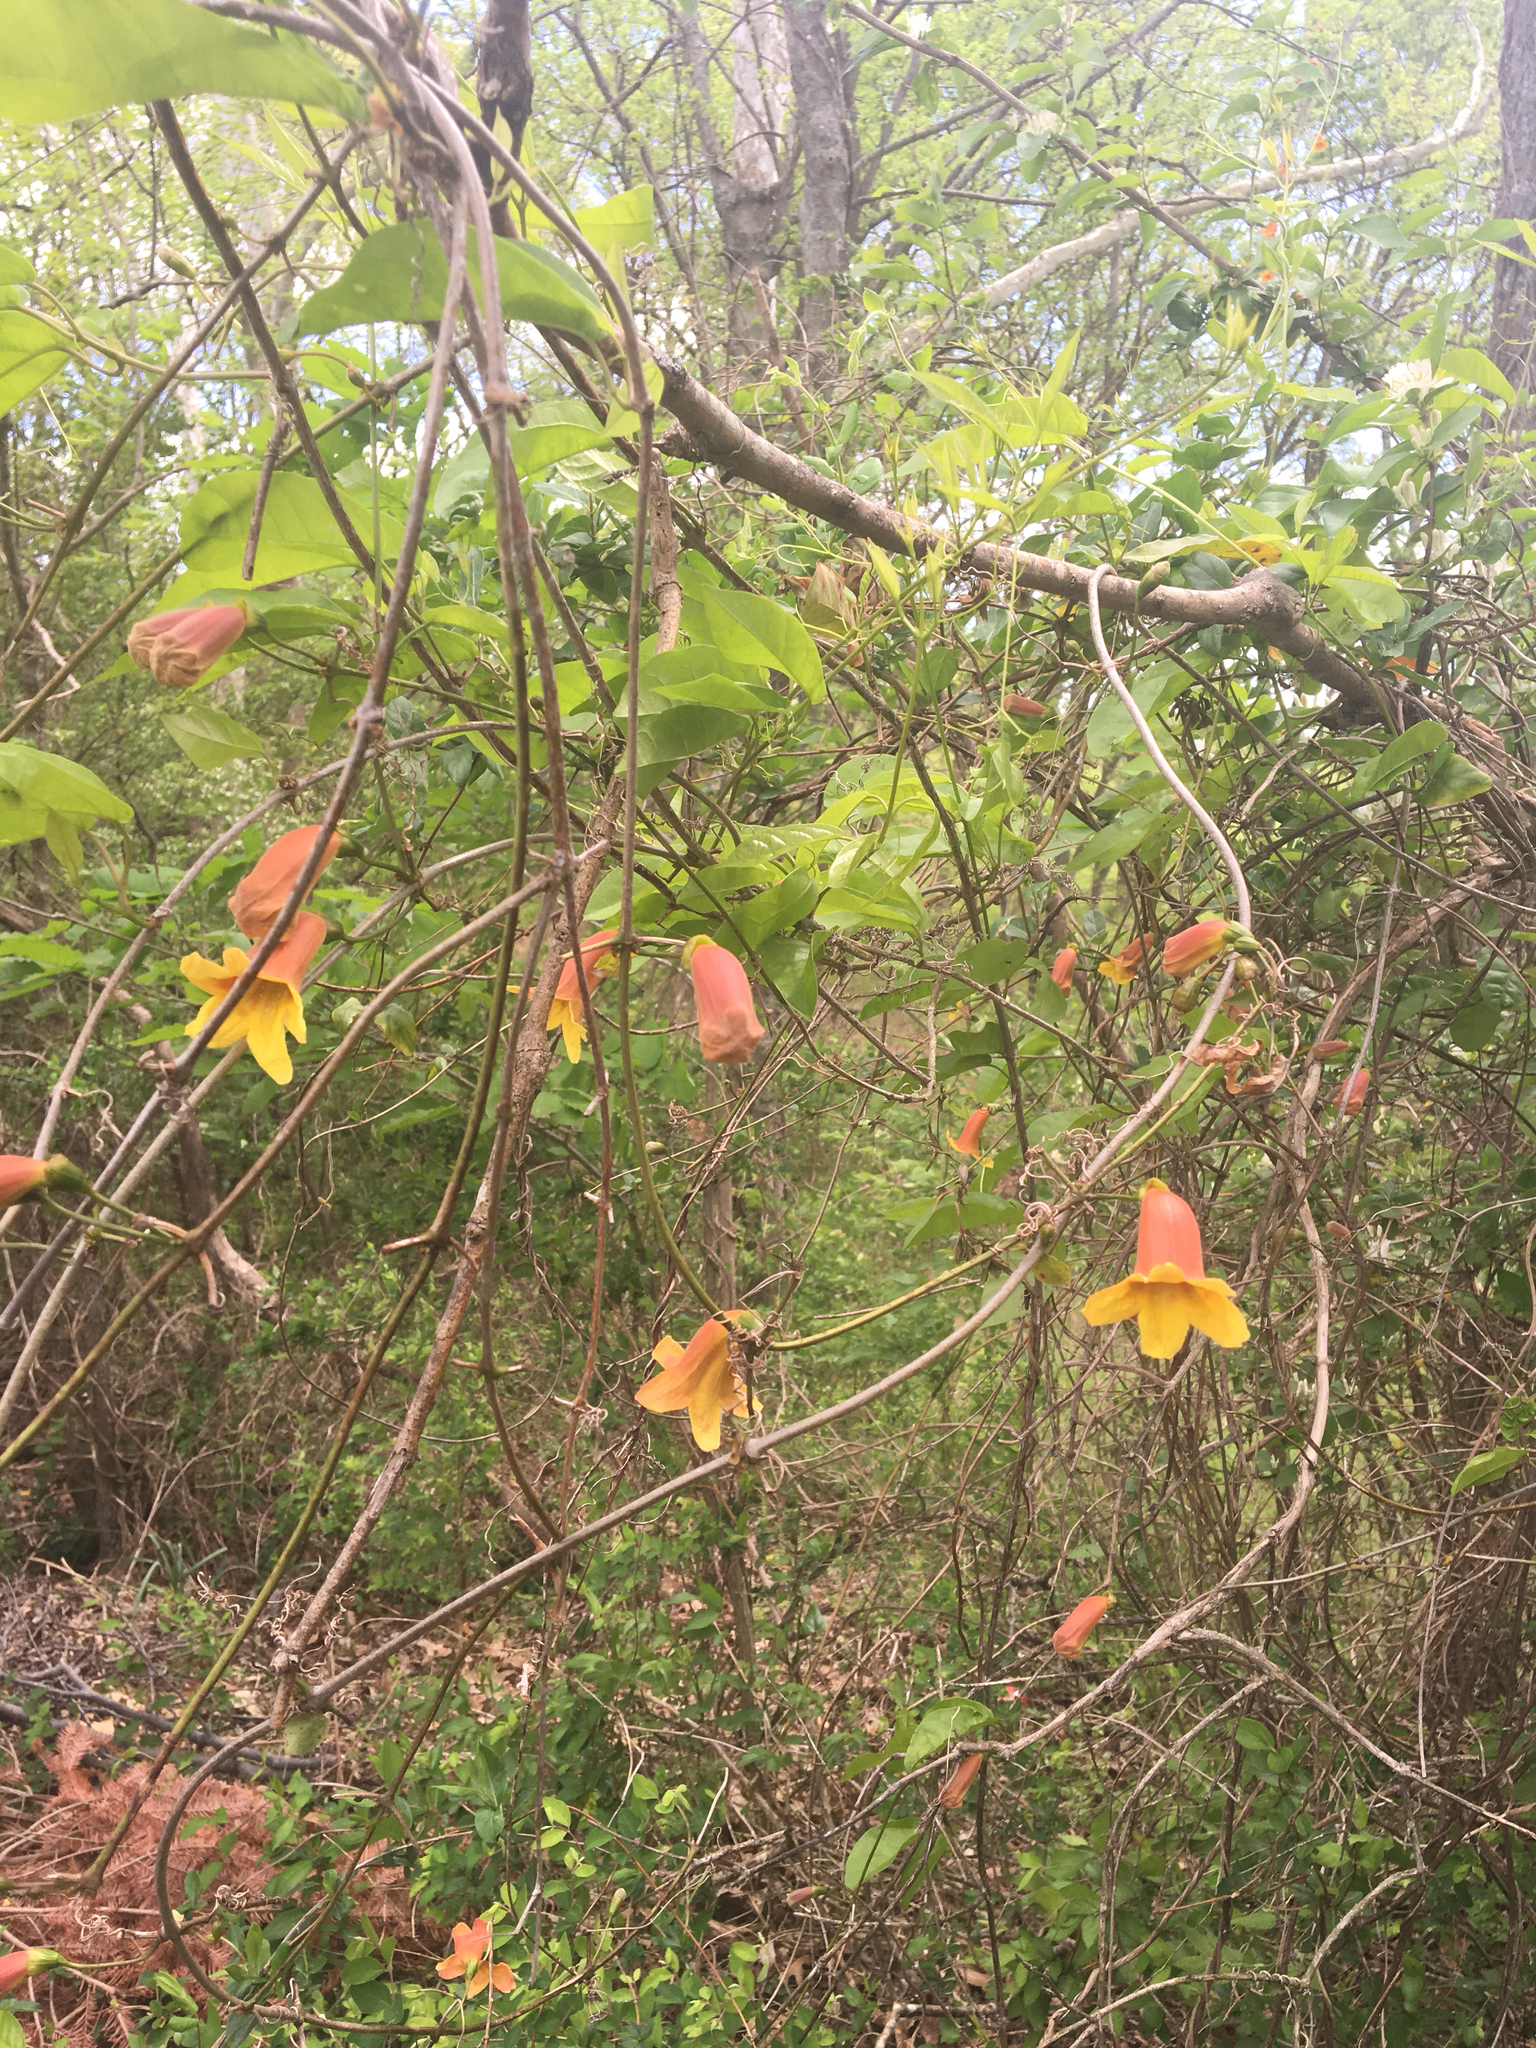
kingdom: Plantae
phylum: Tracheophyta
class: Magnoliopsida
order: Lamiales
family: Bignoniaceae
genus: Bignonia
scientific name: Bignonia capreolata
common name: Crossvine
